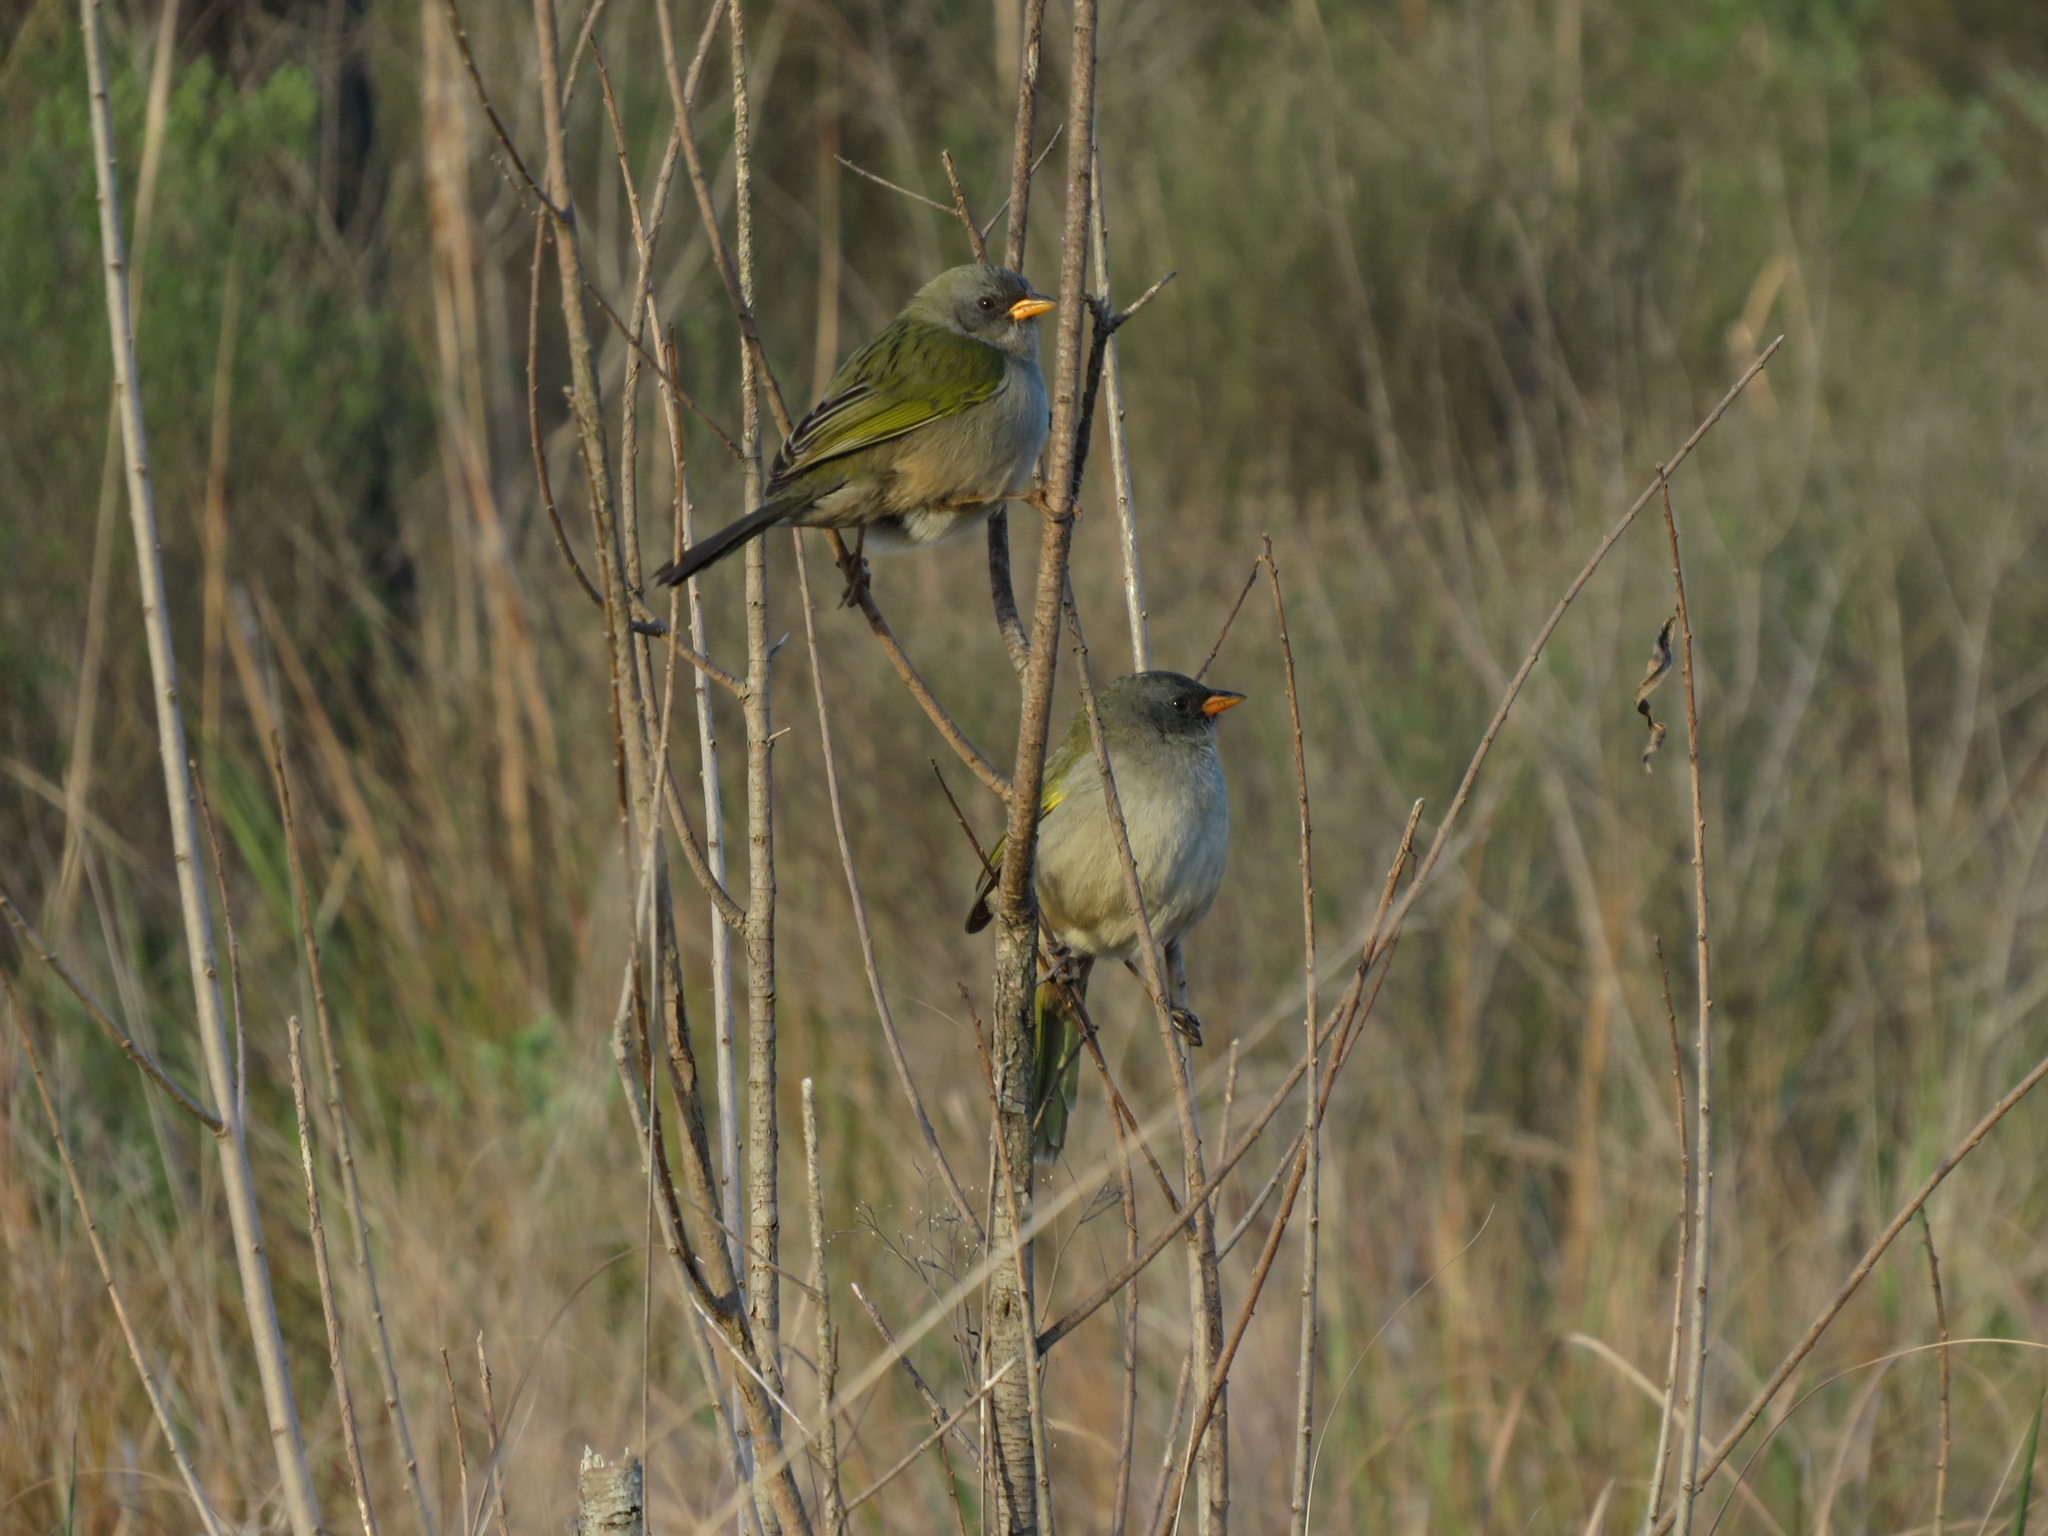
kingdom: Animalia
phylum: Chordata
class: Aves
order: Passeriformes
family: Thraupidae
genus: Embernagra
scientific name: Embernagra platensis
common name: Pampa finch
